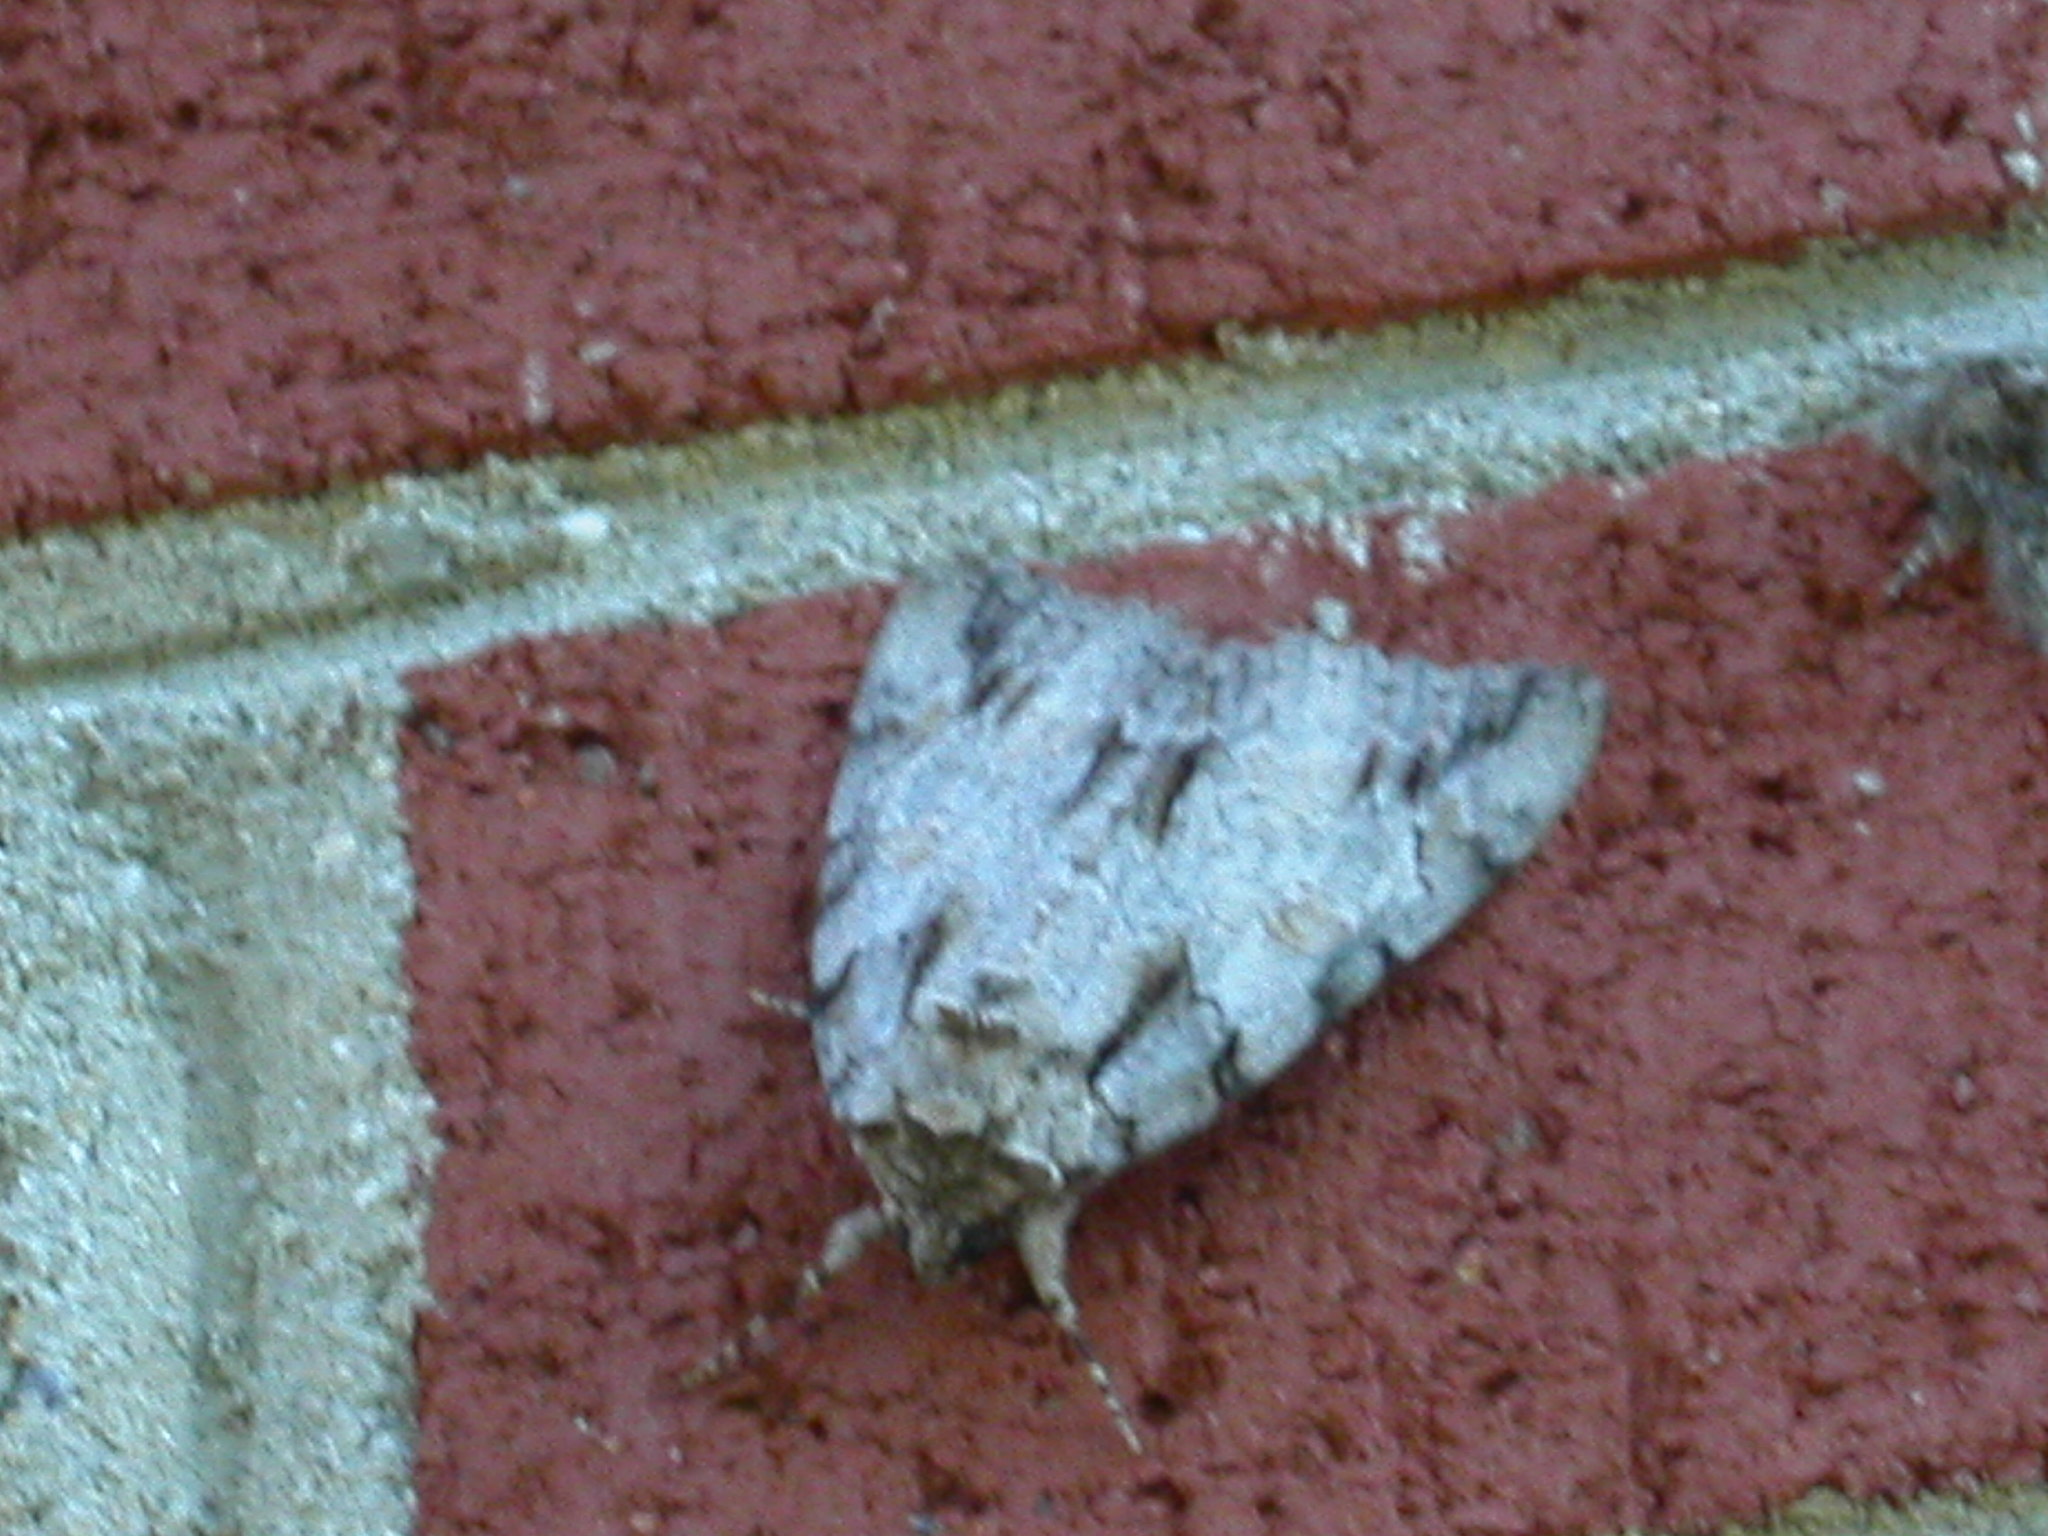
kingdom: Animalia
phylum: Arthropoda
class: Insecta
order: Lepidoptera
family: Erebidae
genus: Catocala
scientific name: Catocala neogama
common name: Bride underwing
